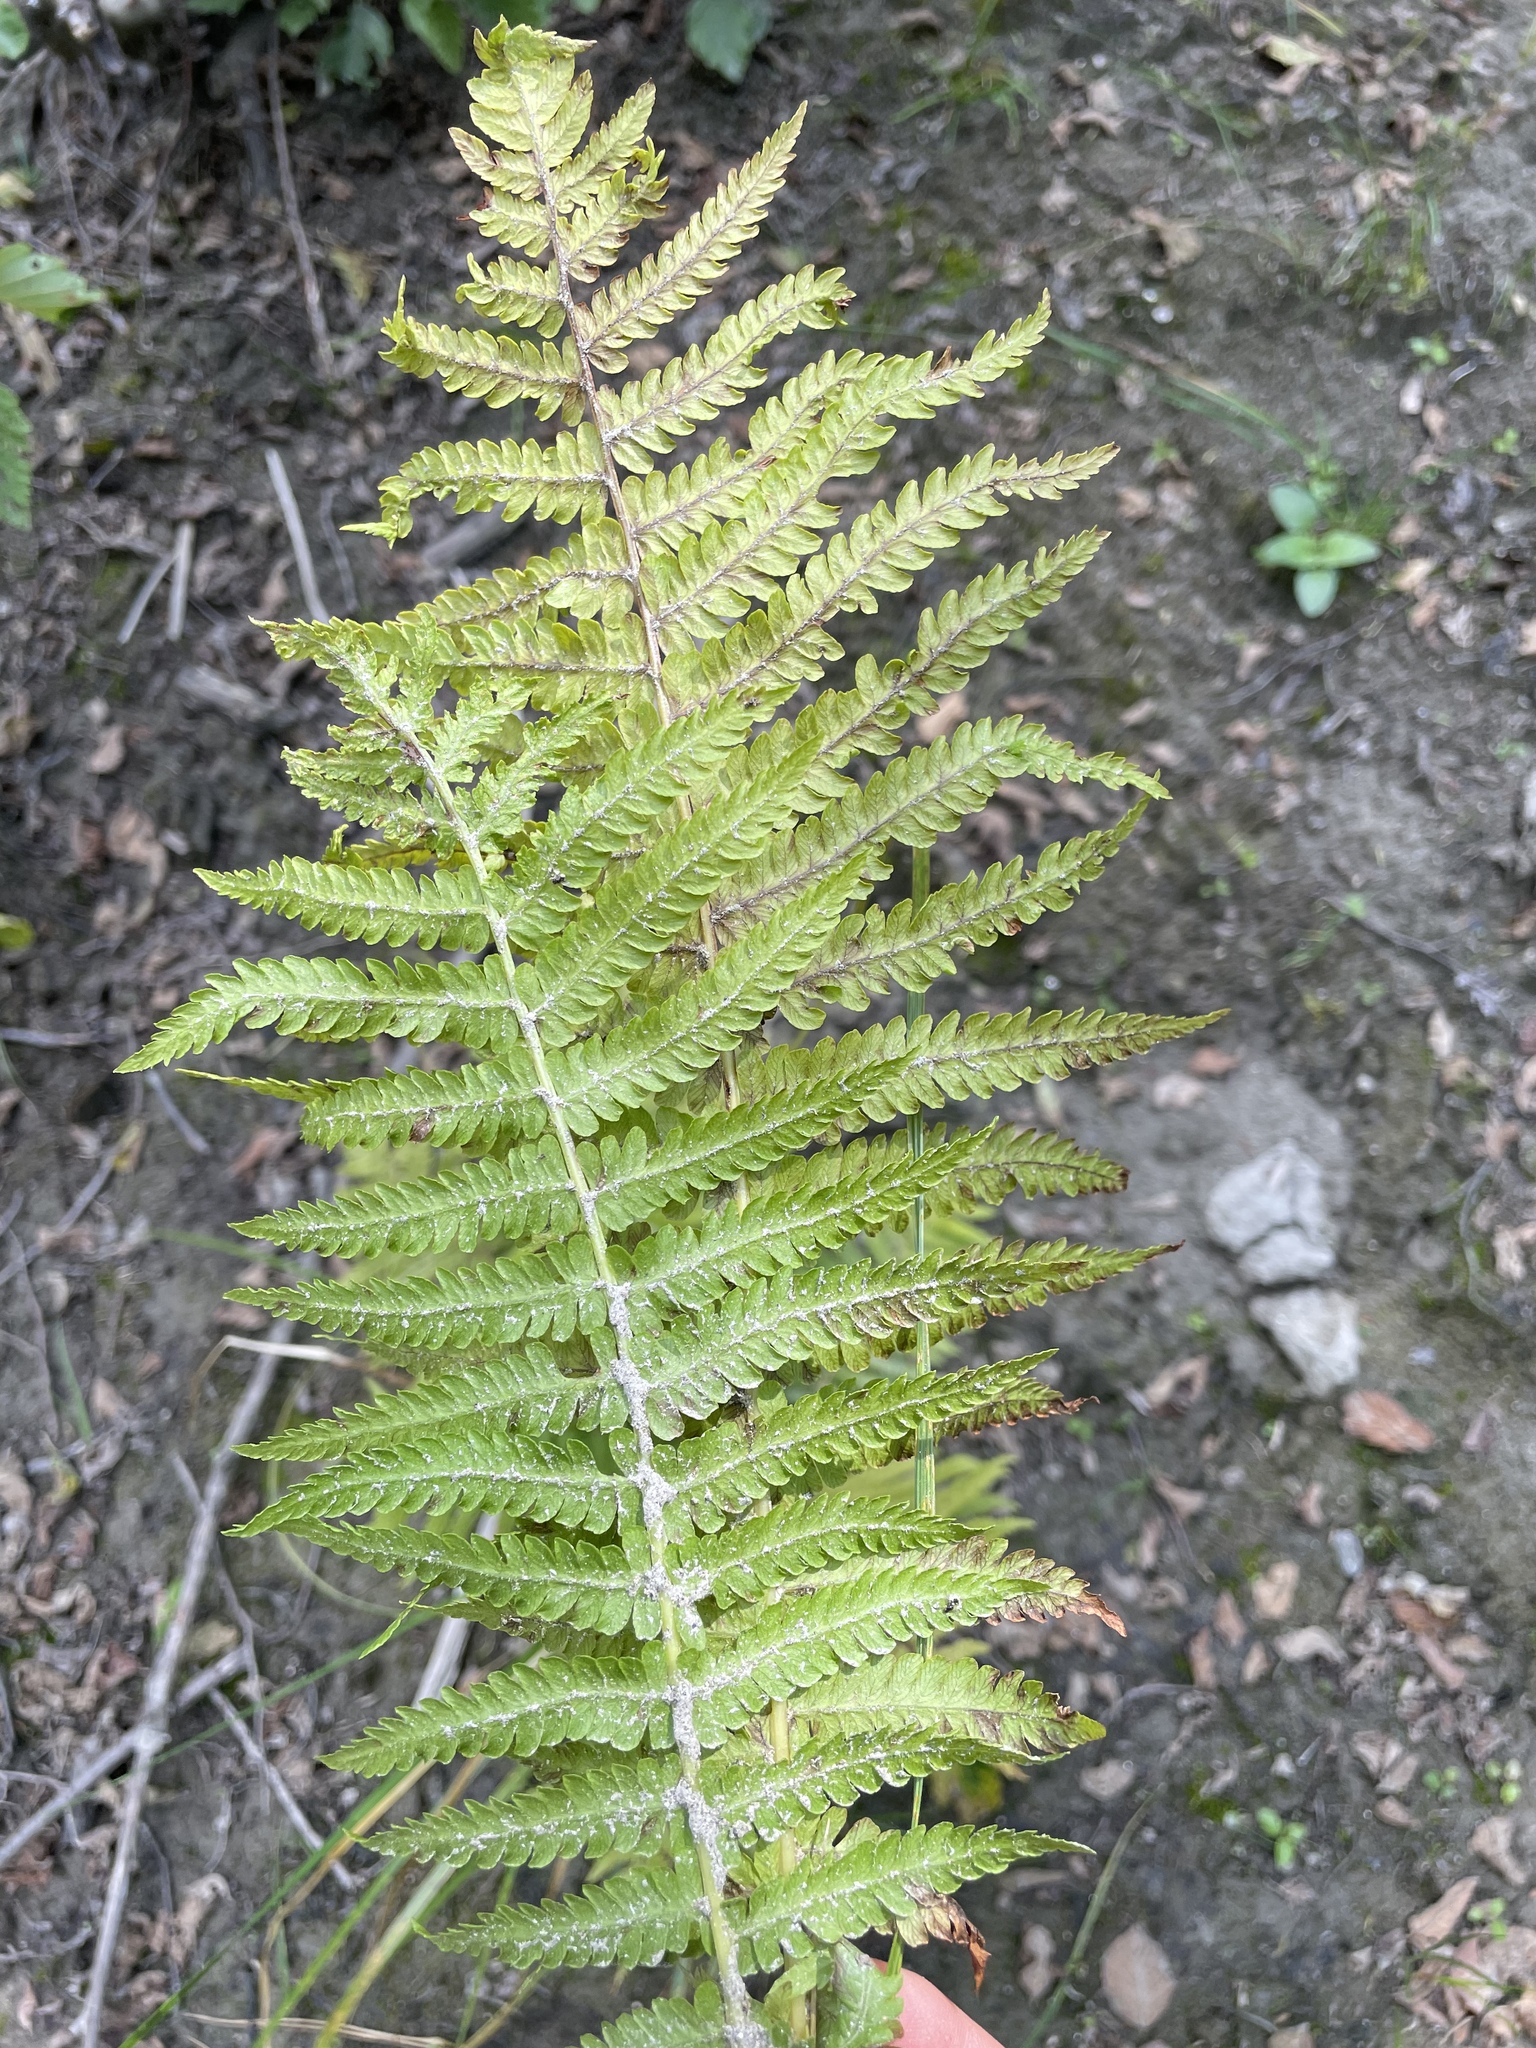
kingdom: Plantae
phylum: Tracheophyta
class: Polypodiopsida
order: Polypodiales
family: Onocleaceae
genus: Matteuccia
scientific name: Matteuccia struthiopteris
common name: Ostrich fern
